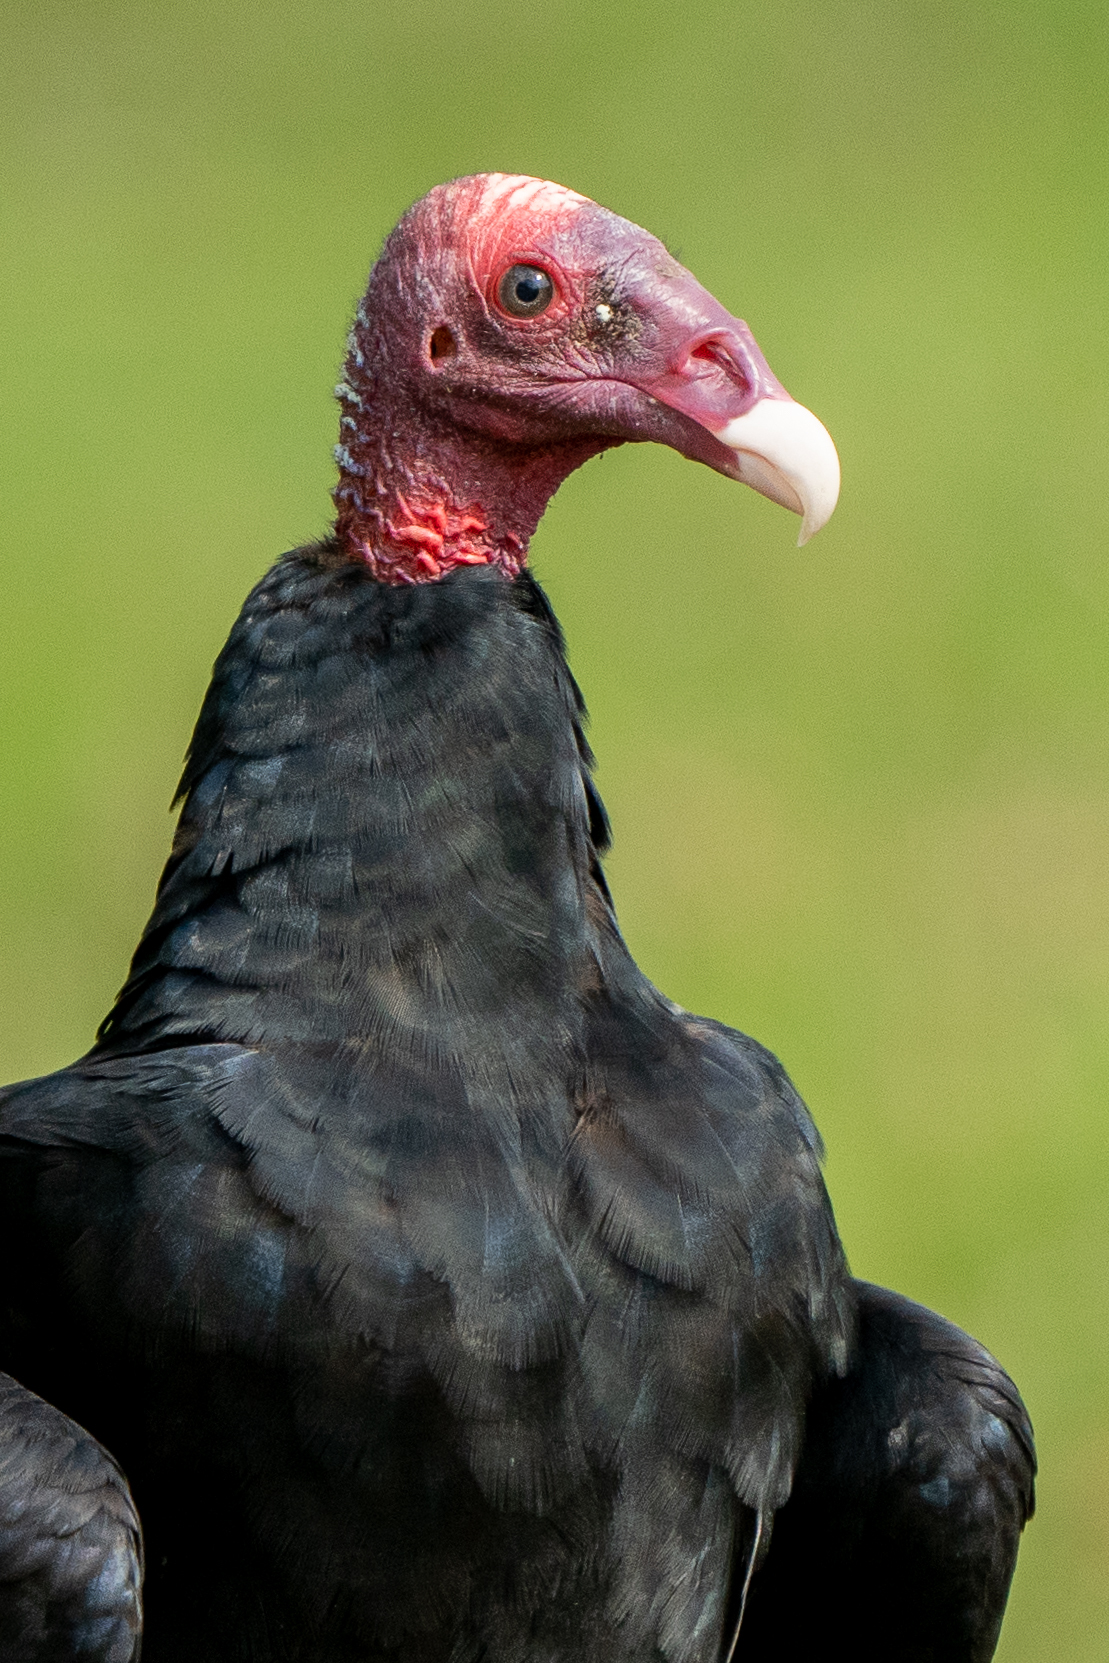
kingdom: Animalia
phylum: Chordata
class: Aves
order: Accipitriformes
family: Cathartidae
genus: Cathartes
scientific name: Cathartes aura
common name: Turkey vulture
